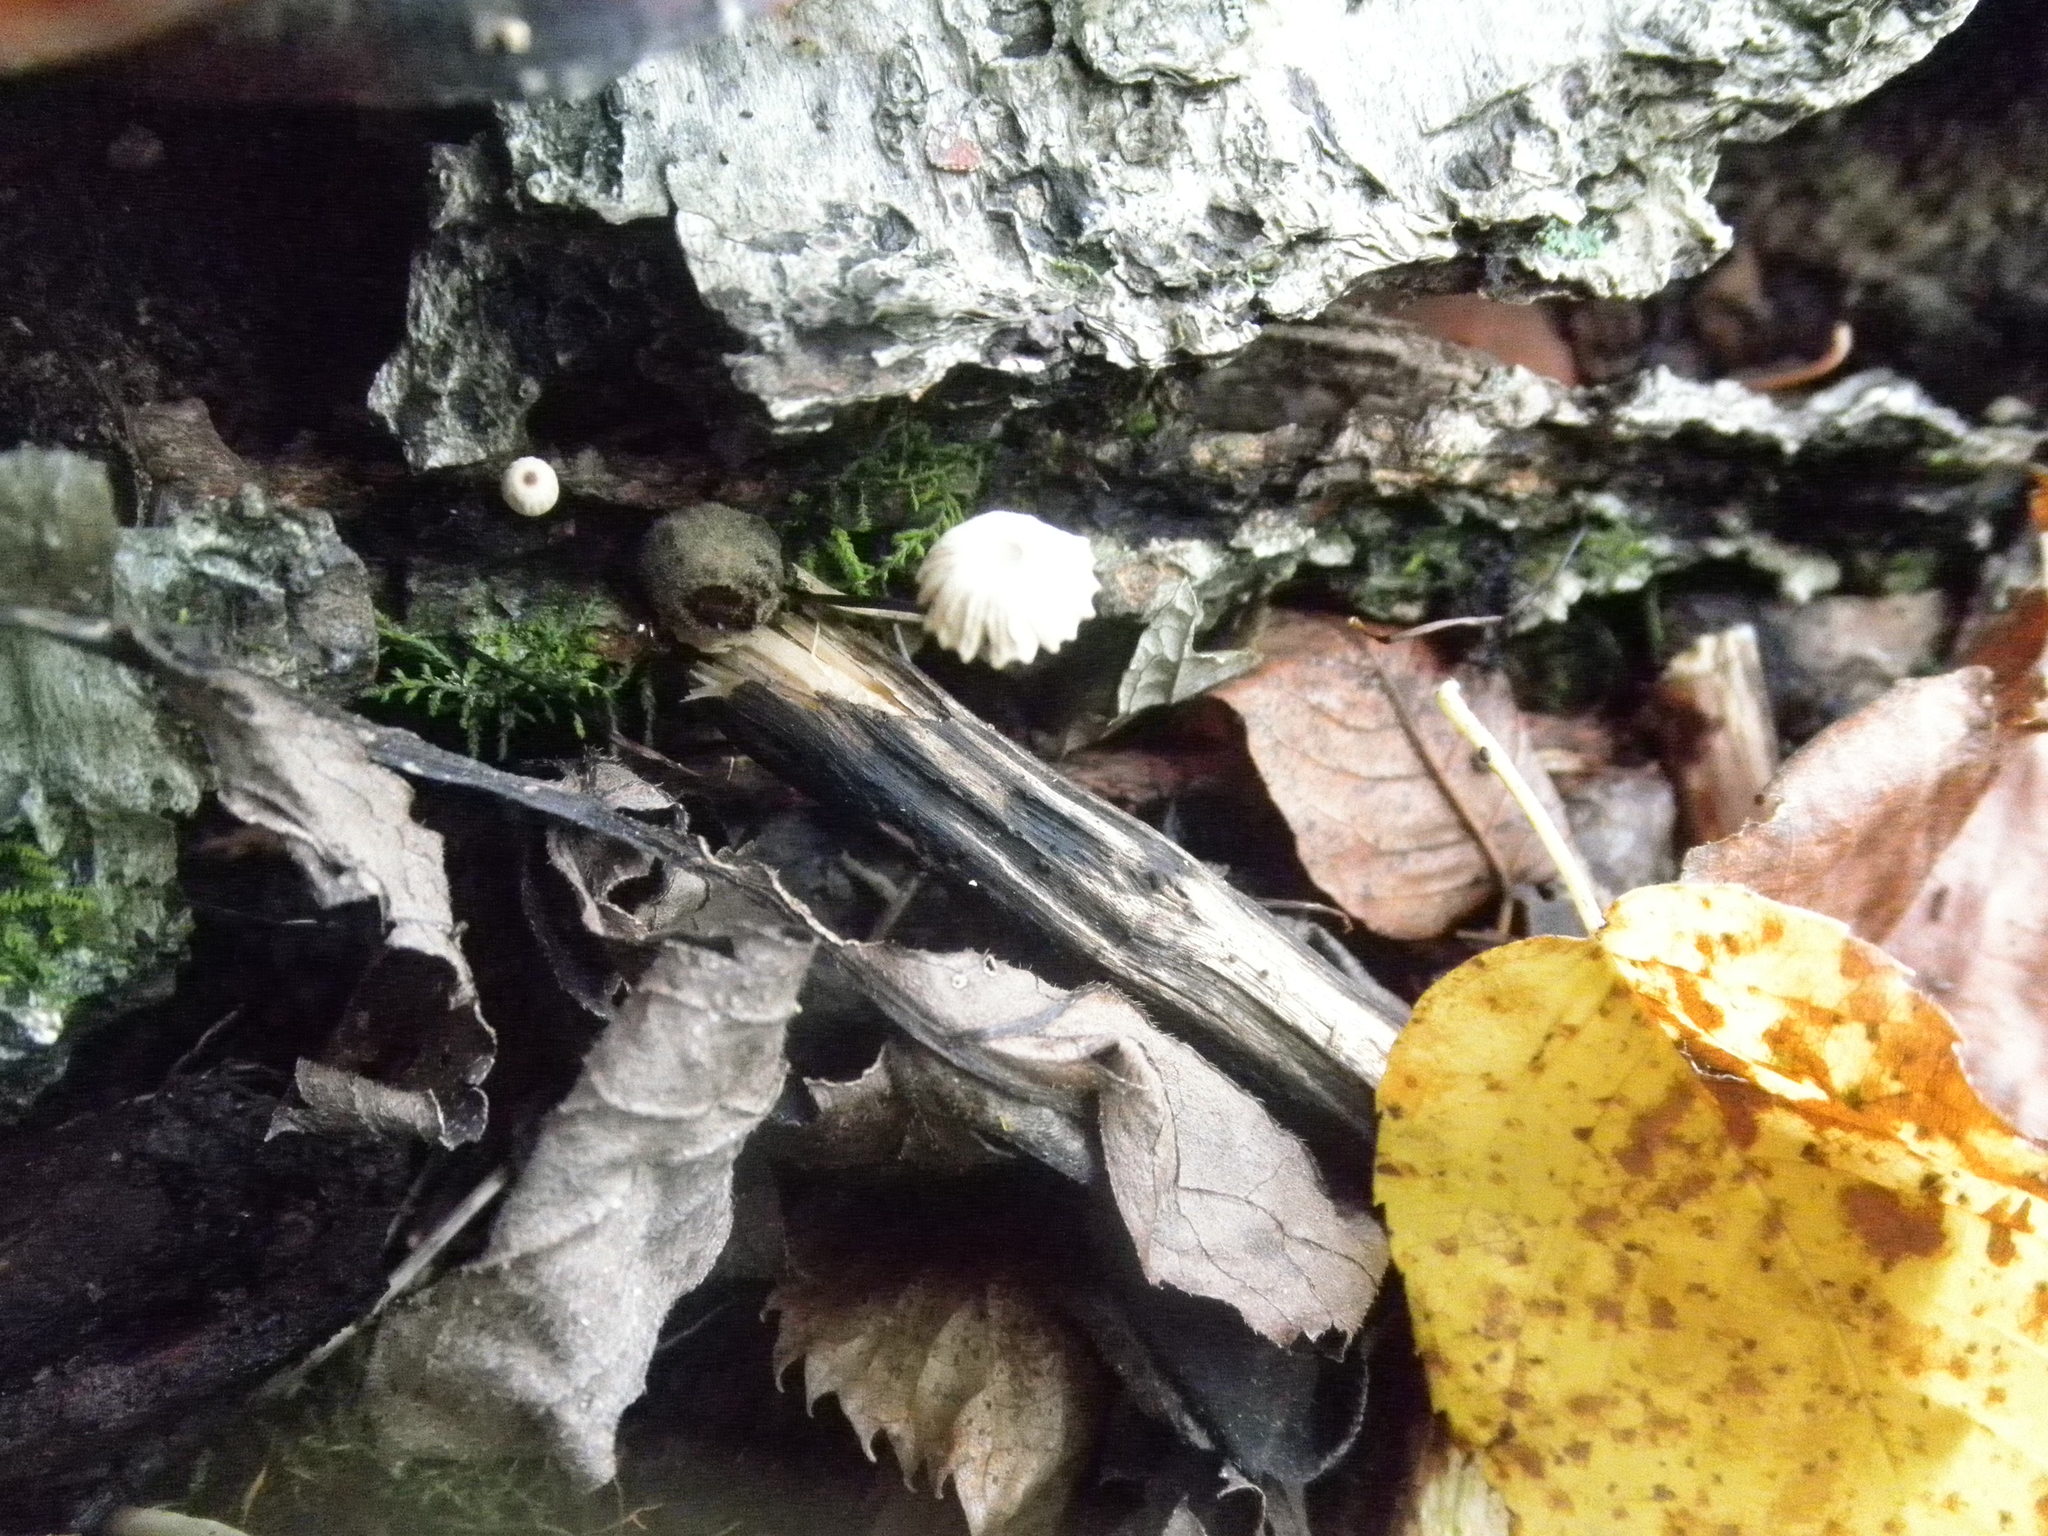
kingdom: Fungi
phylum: Basidiomycota
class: Agaricomycetes
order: Agaricales
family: Marasmiaceae
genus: Marasmius
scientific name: Marasmius rotula
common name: Collared parachute
